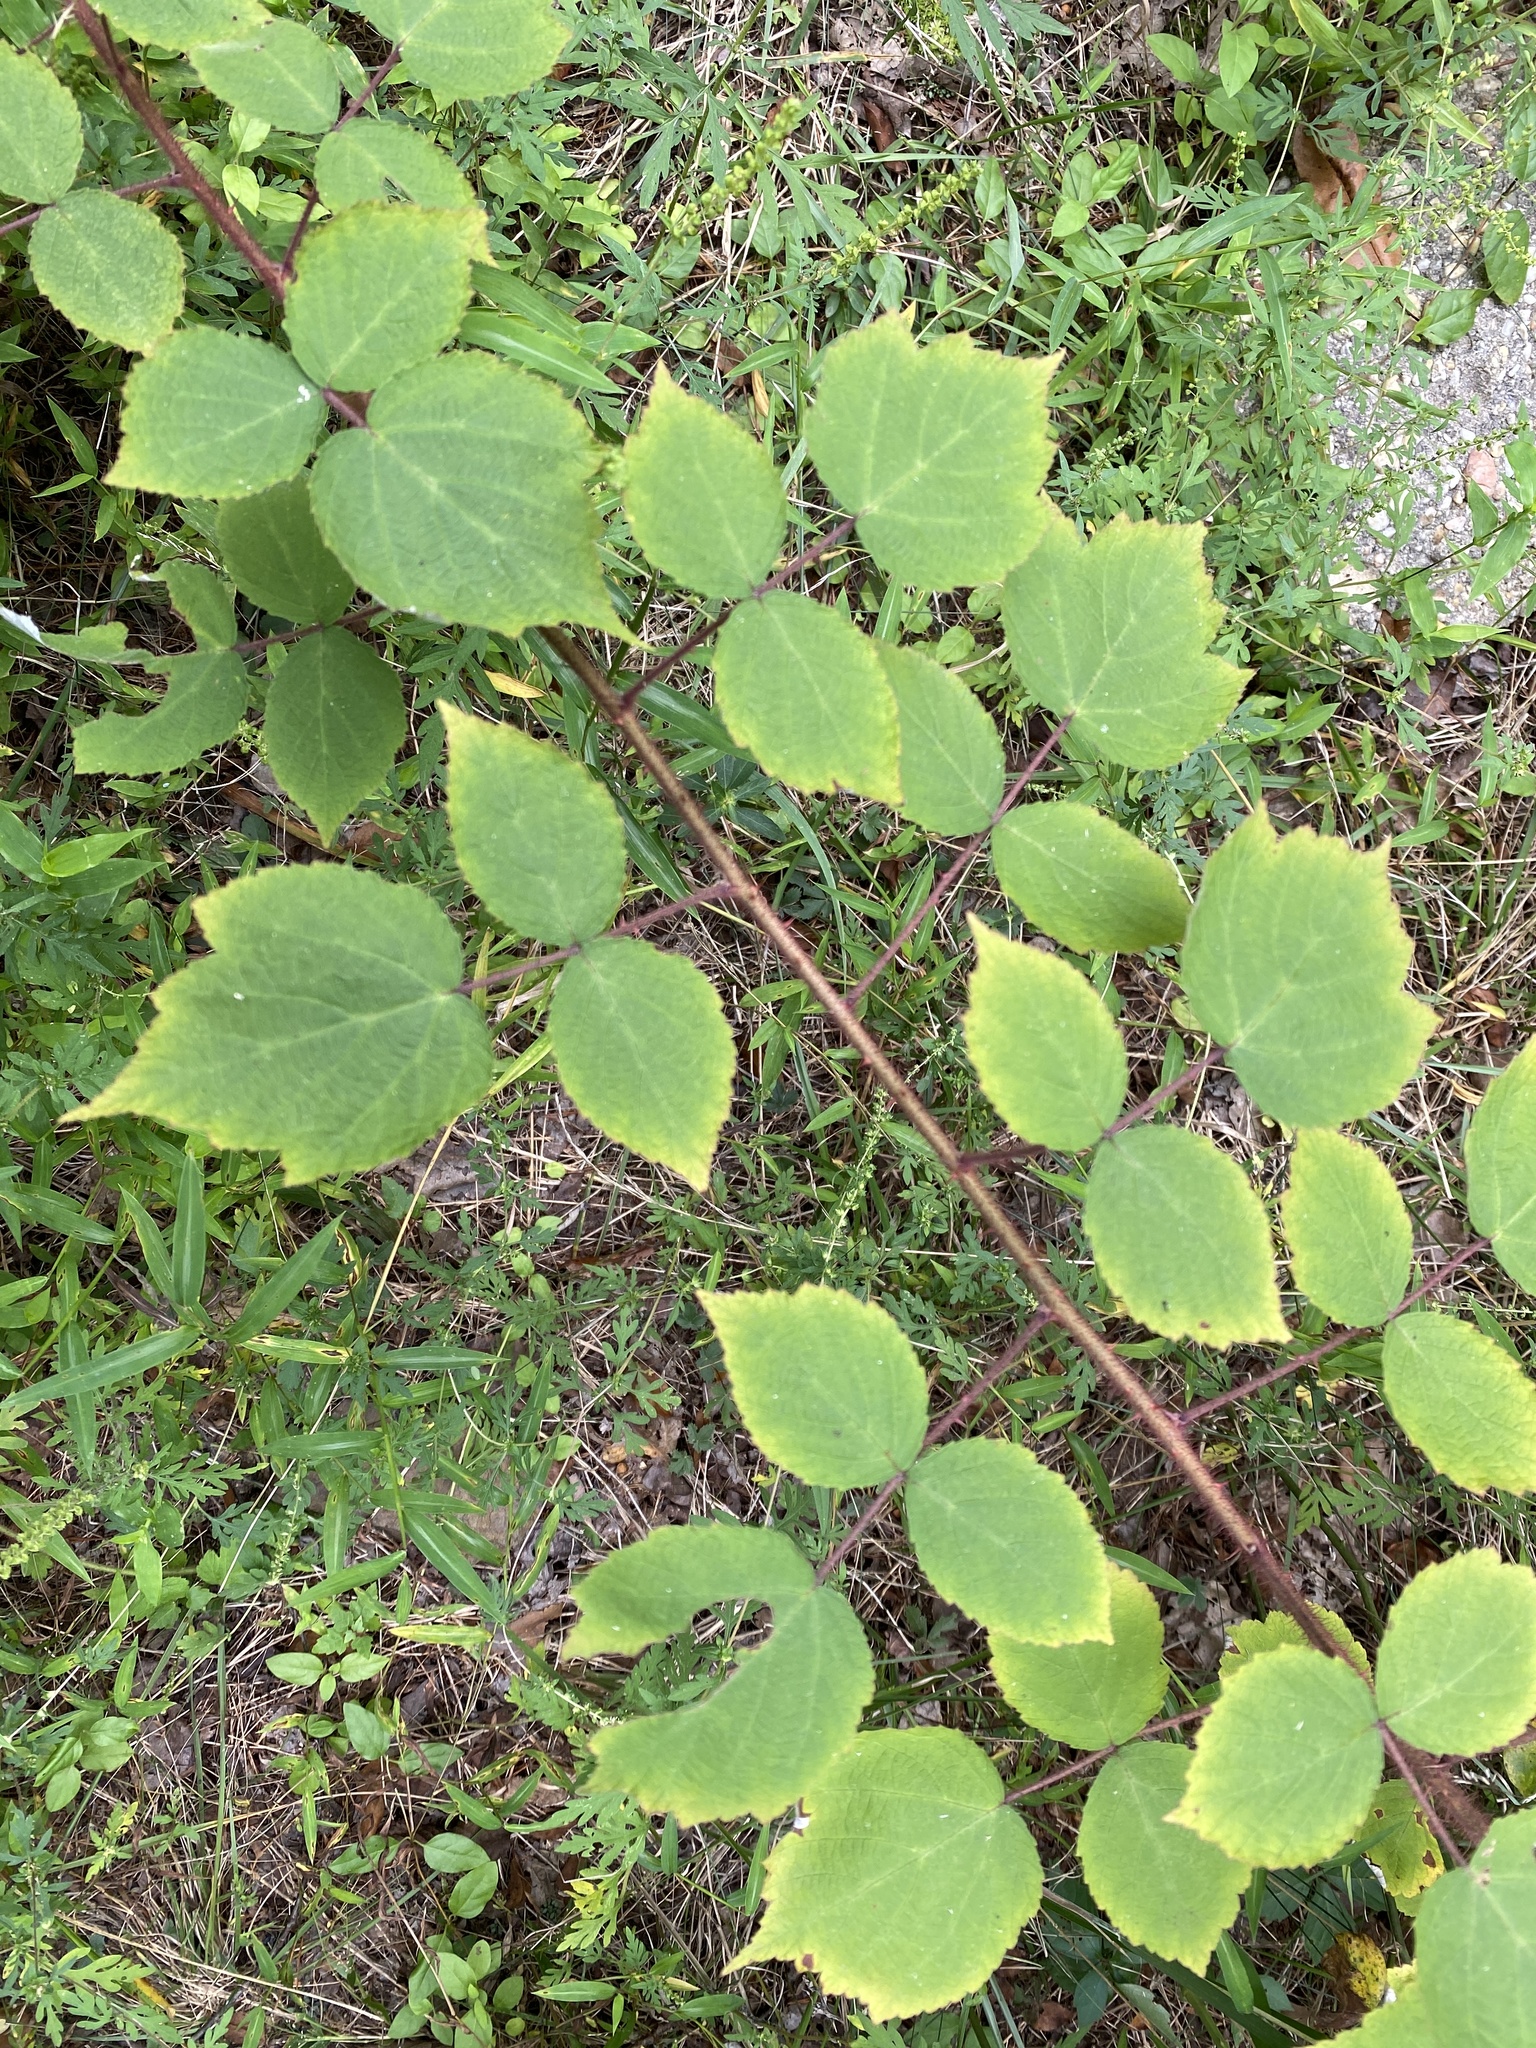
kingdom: Plantae
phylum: Tracheophyta
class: Magnoliopsida
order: Rosales
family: Rosaceae
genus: Rubus
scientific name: Rubus phoenicolasius
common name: Japanese wineberry
